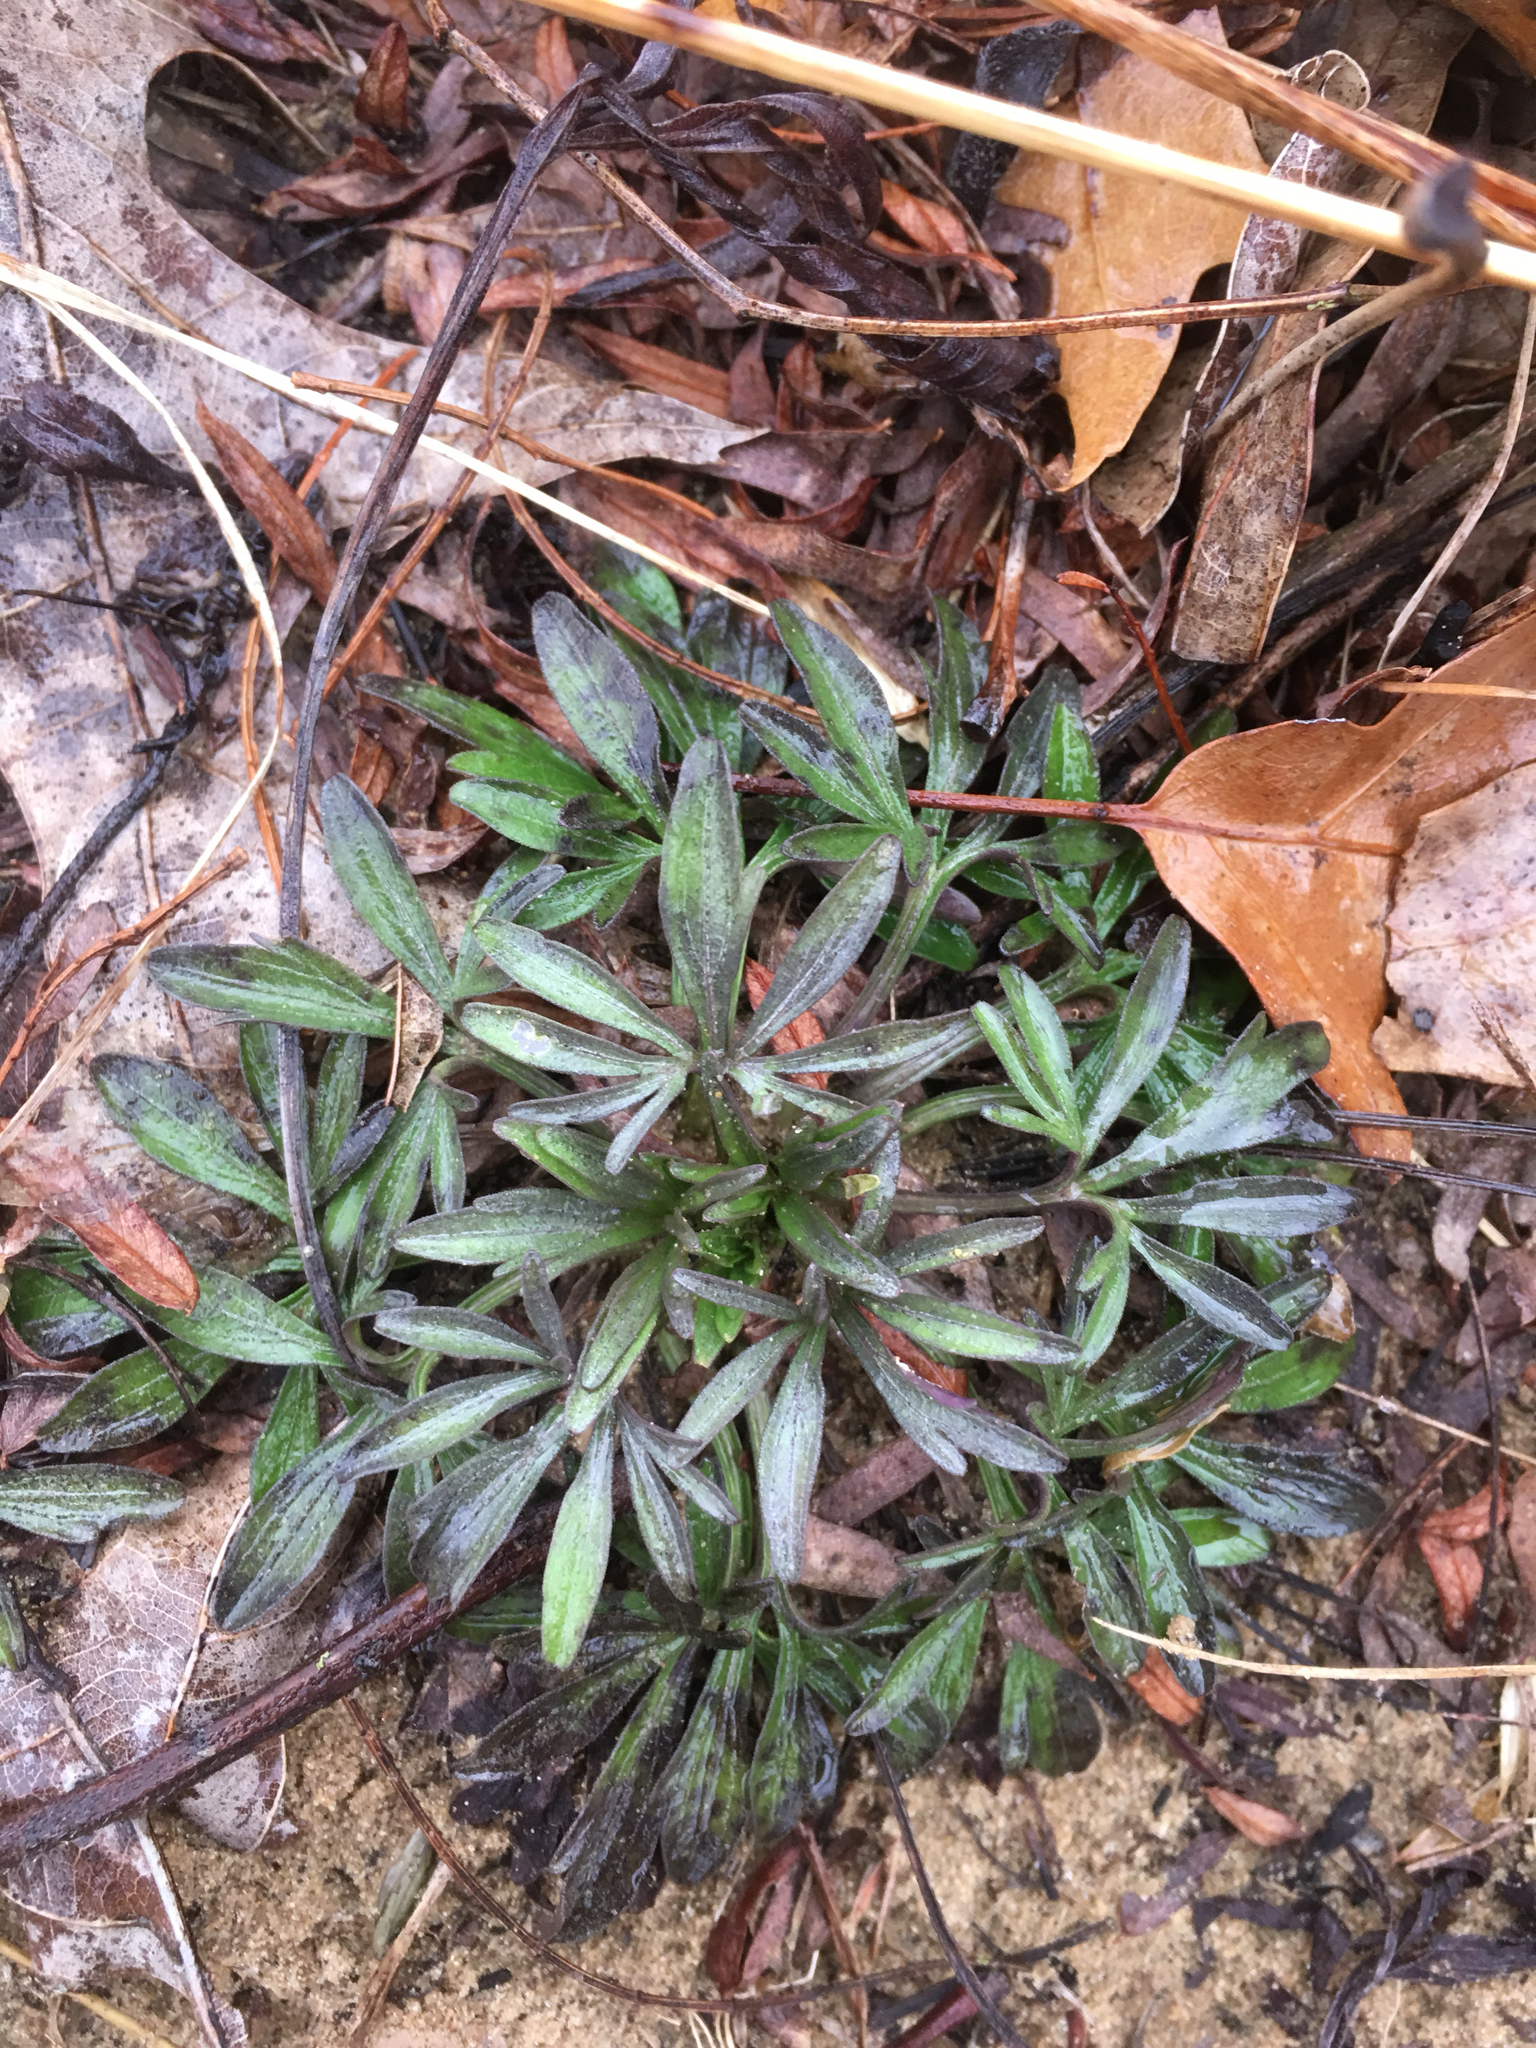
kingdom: Plantae
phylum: Tracheophyta
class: Magnoliopsida
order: Malpighiales
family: Violaceae
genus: Viola
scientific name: Viola pedata
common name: Pansy violet
